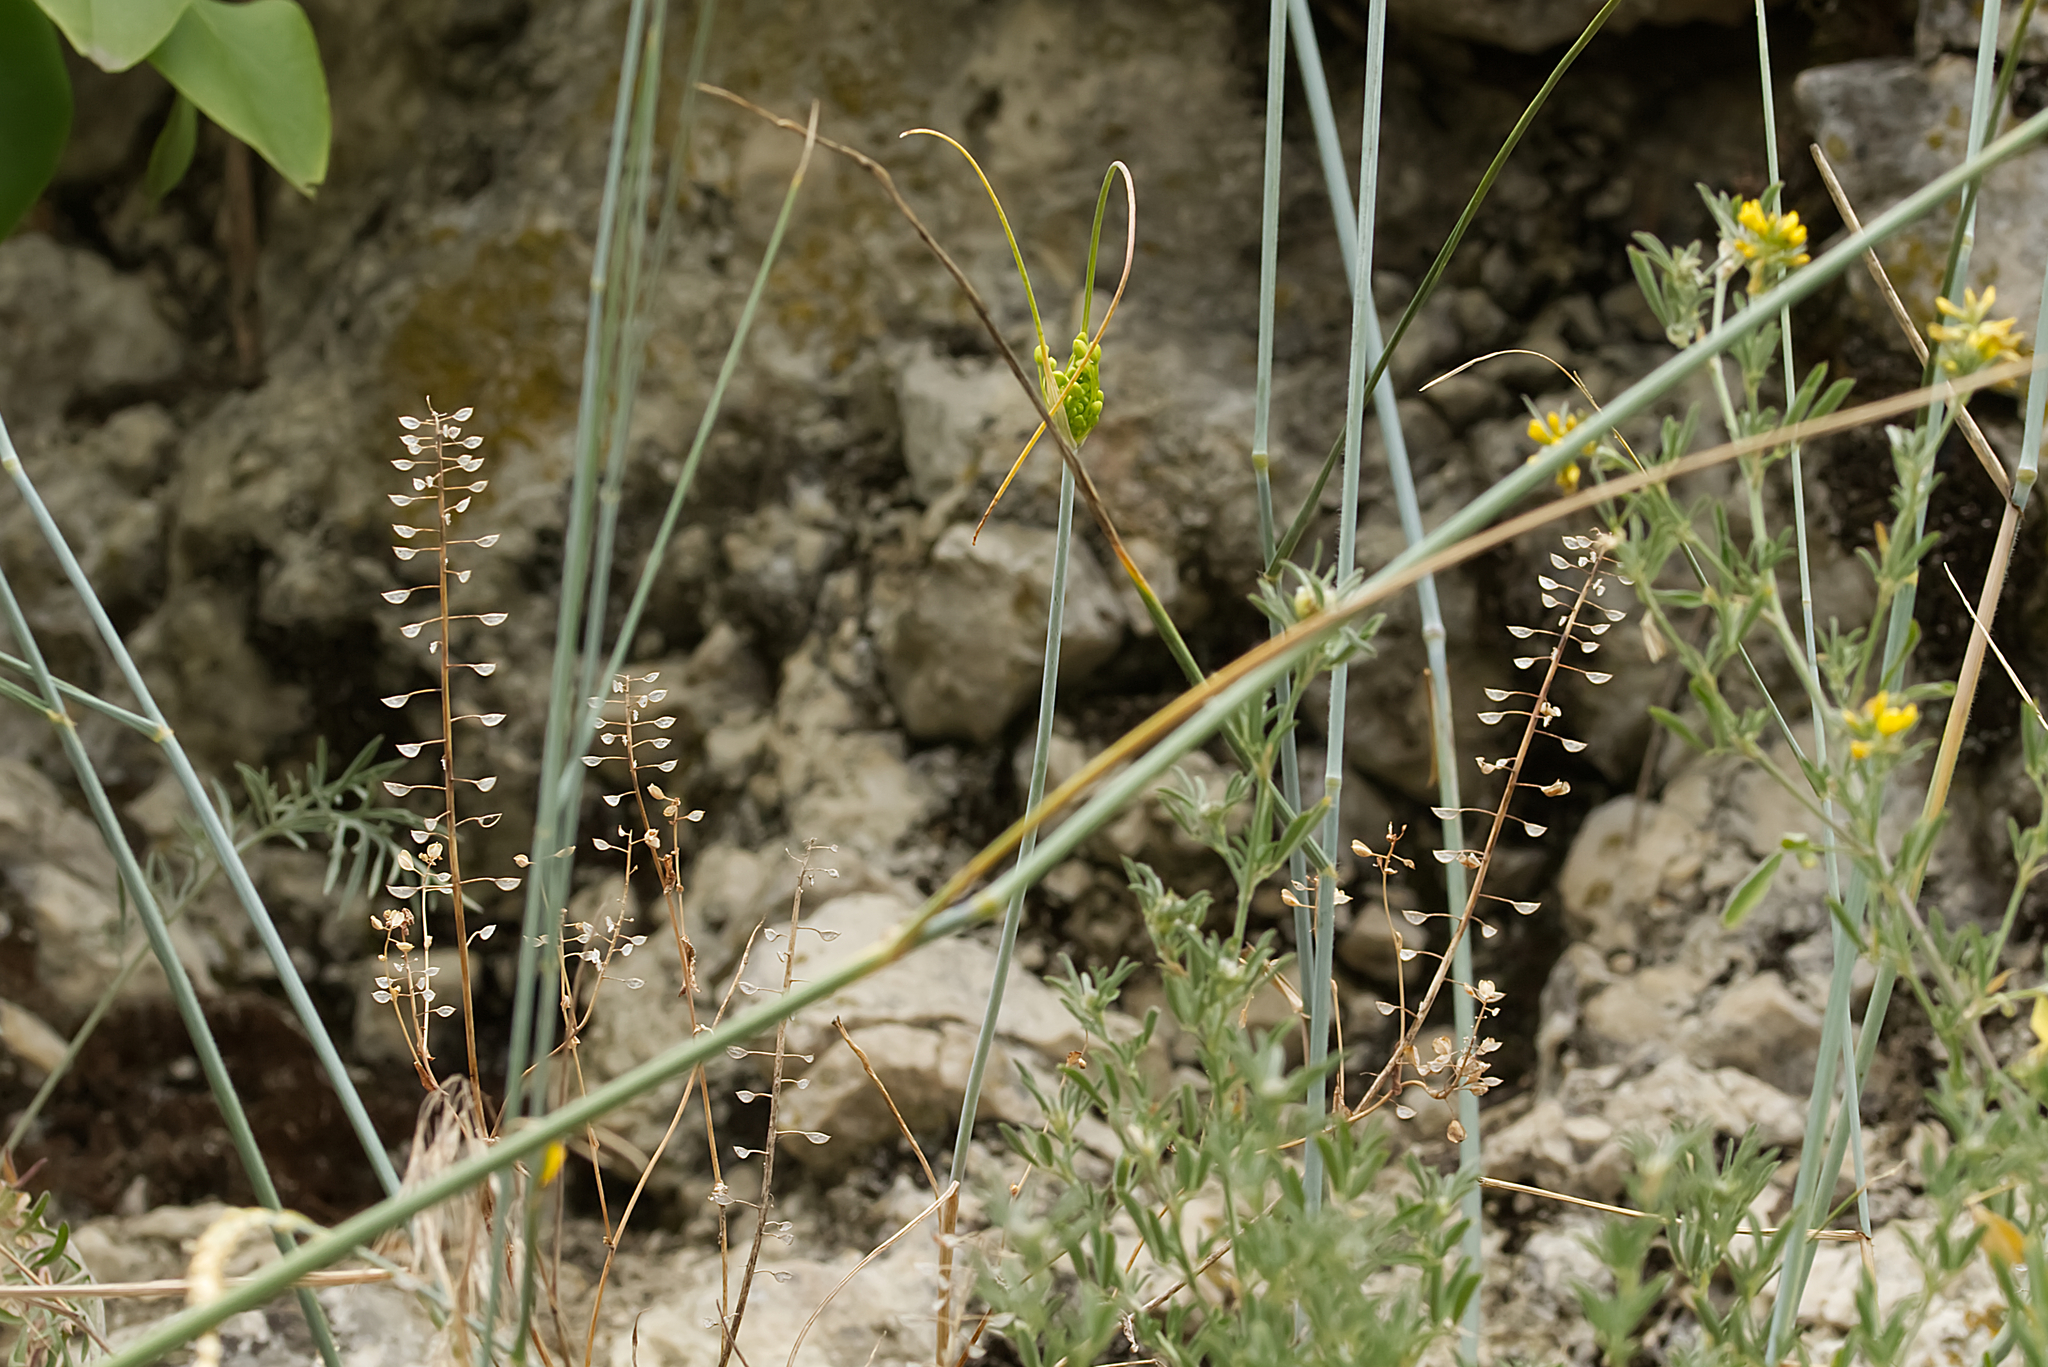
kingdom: Plantae
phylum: Tracheophyta
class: Liliopsida
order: Asparagales
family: Amaryllidaceae
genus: Allium
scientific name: Allium flavum
